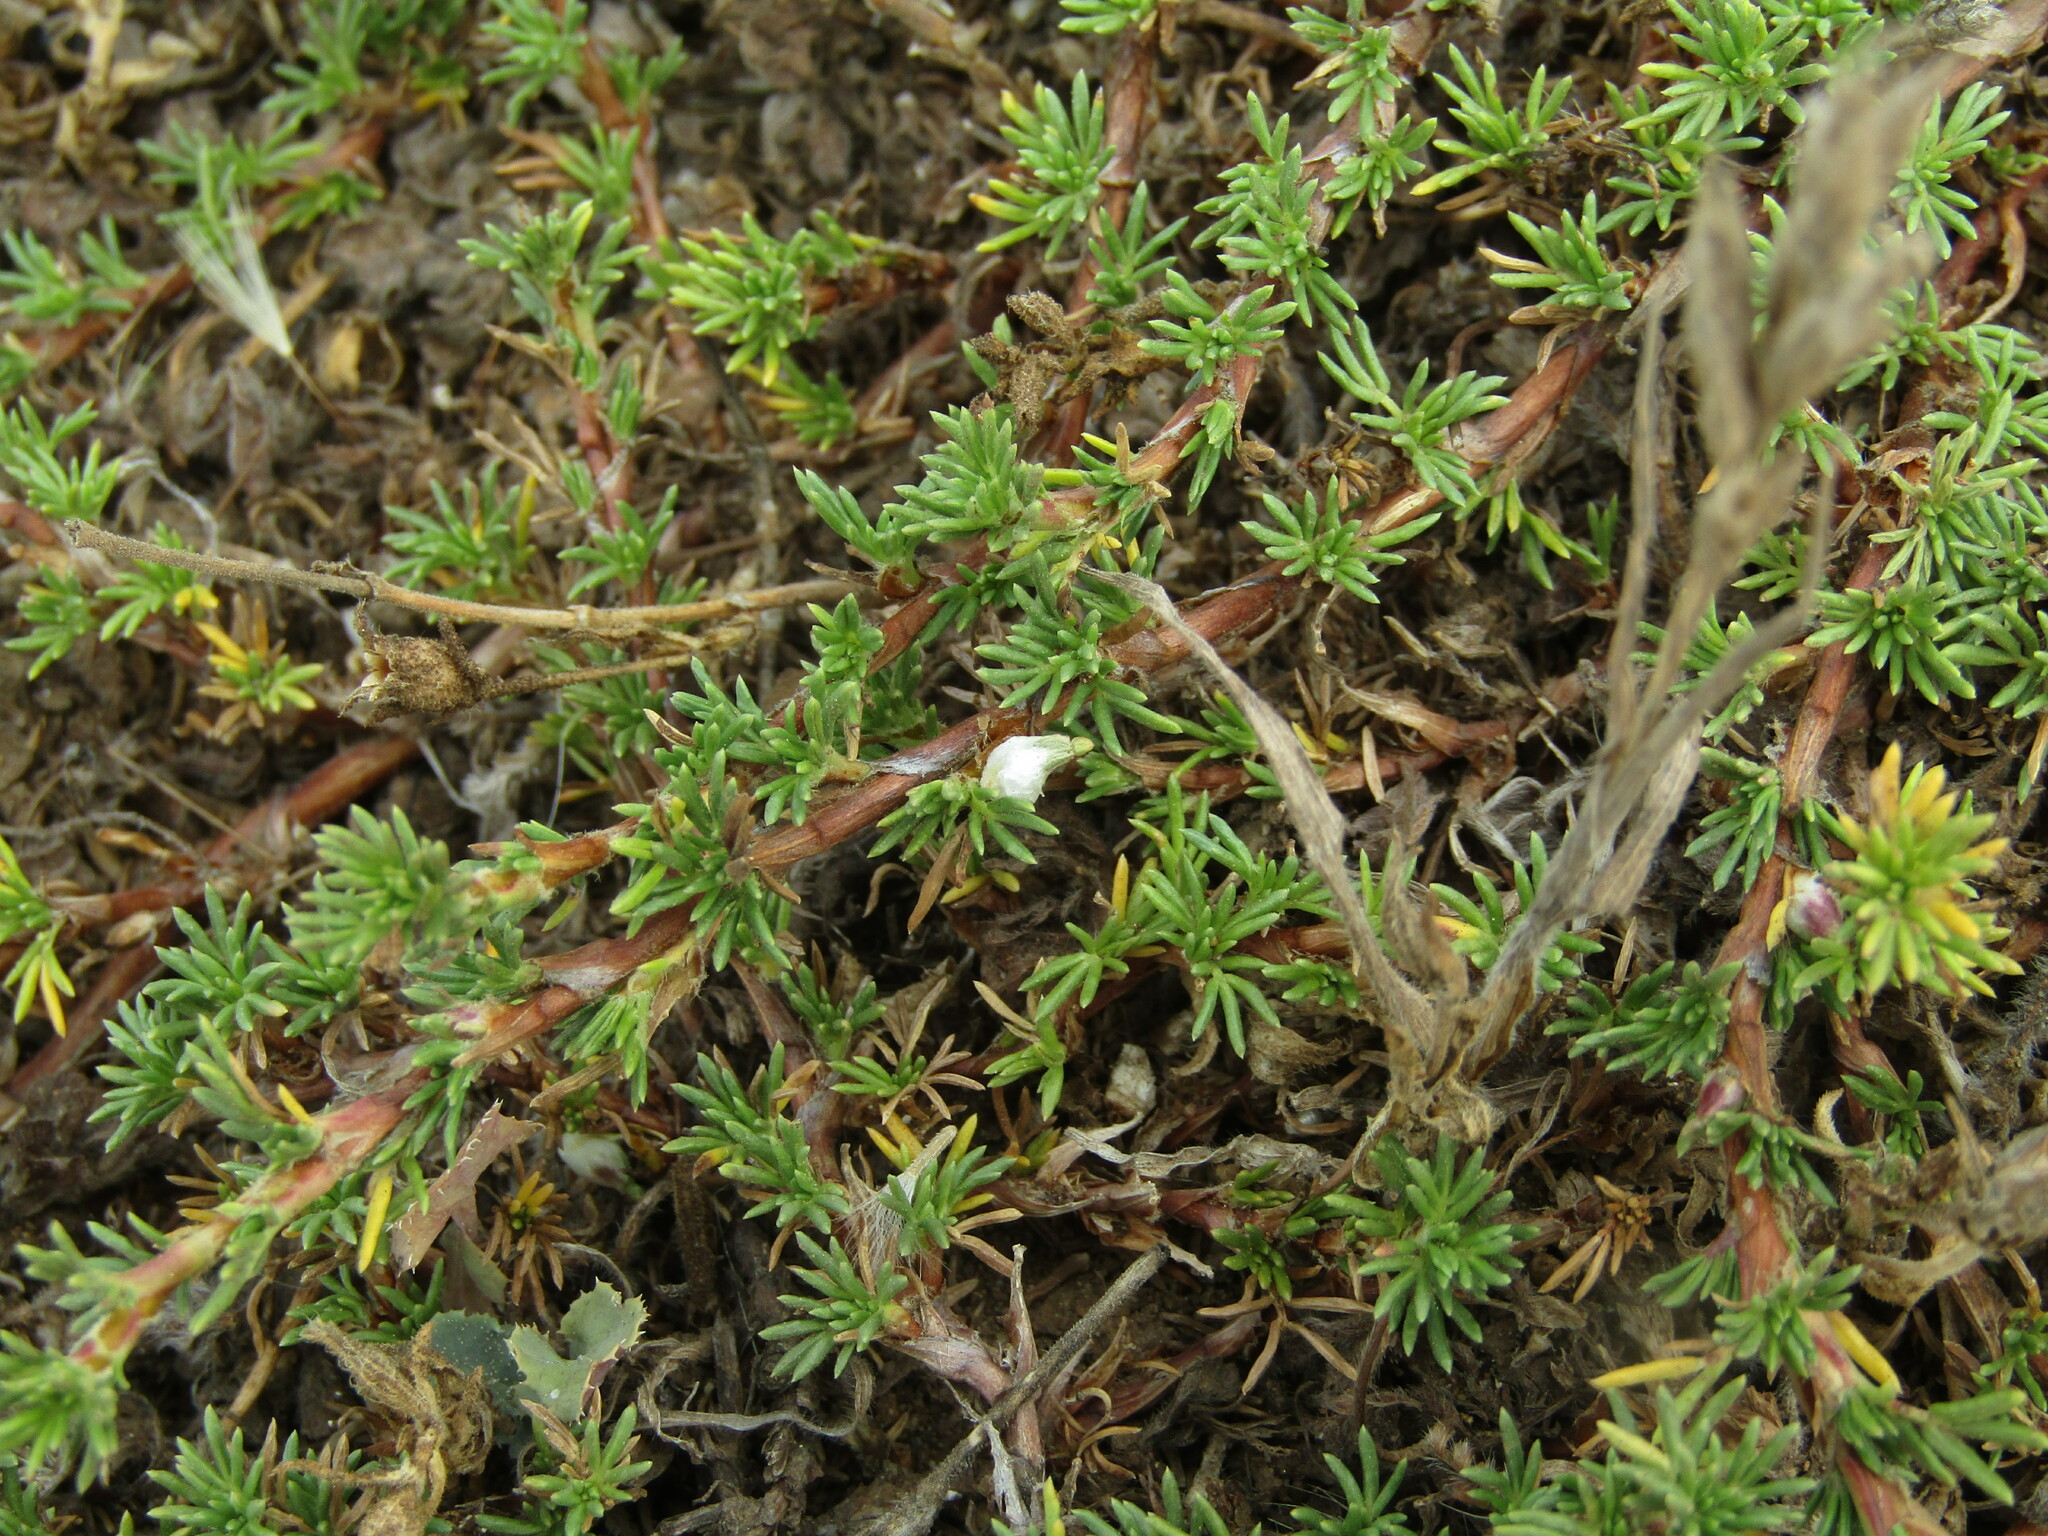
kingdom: Plantae
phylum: Tracheophyta
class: Magnoliopsida
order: Rosales
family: Rosaceae
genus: Margyricarpus
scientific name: Margyricarpus pinnatus
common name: Pearlfruit
